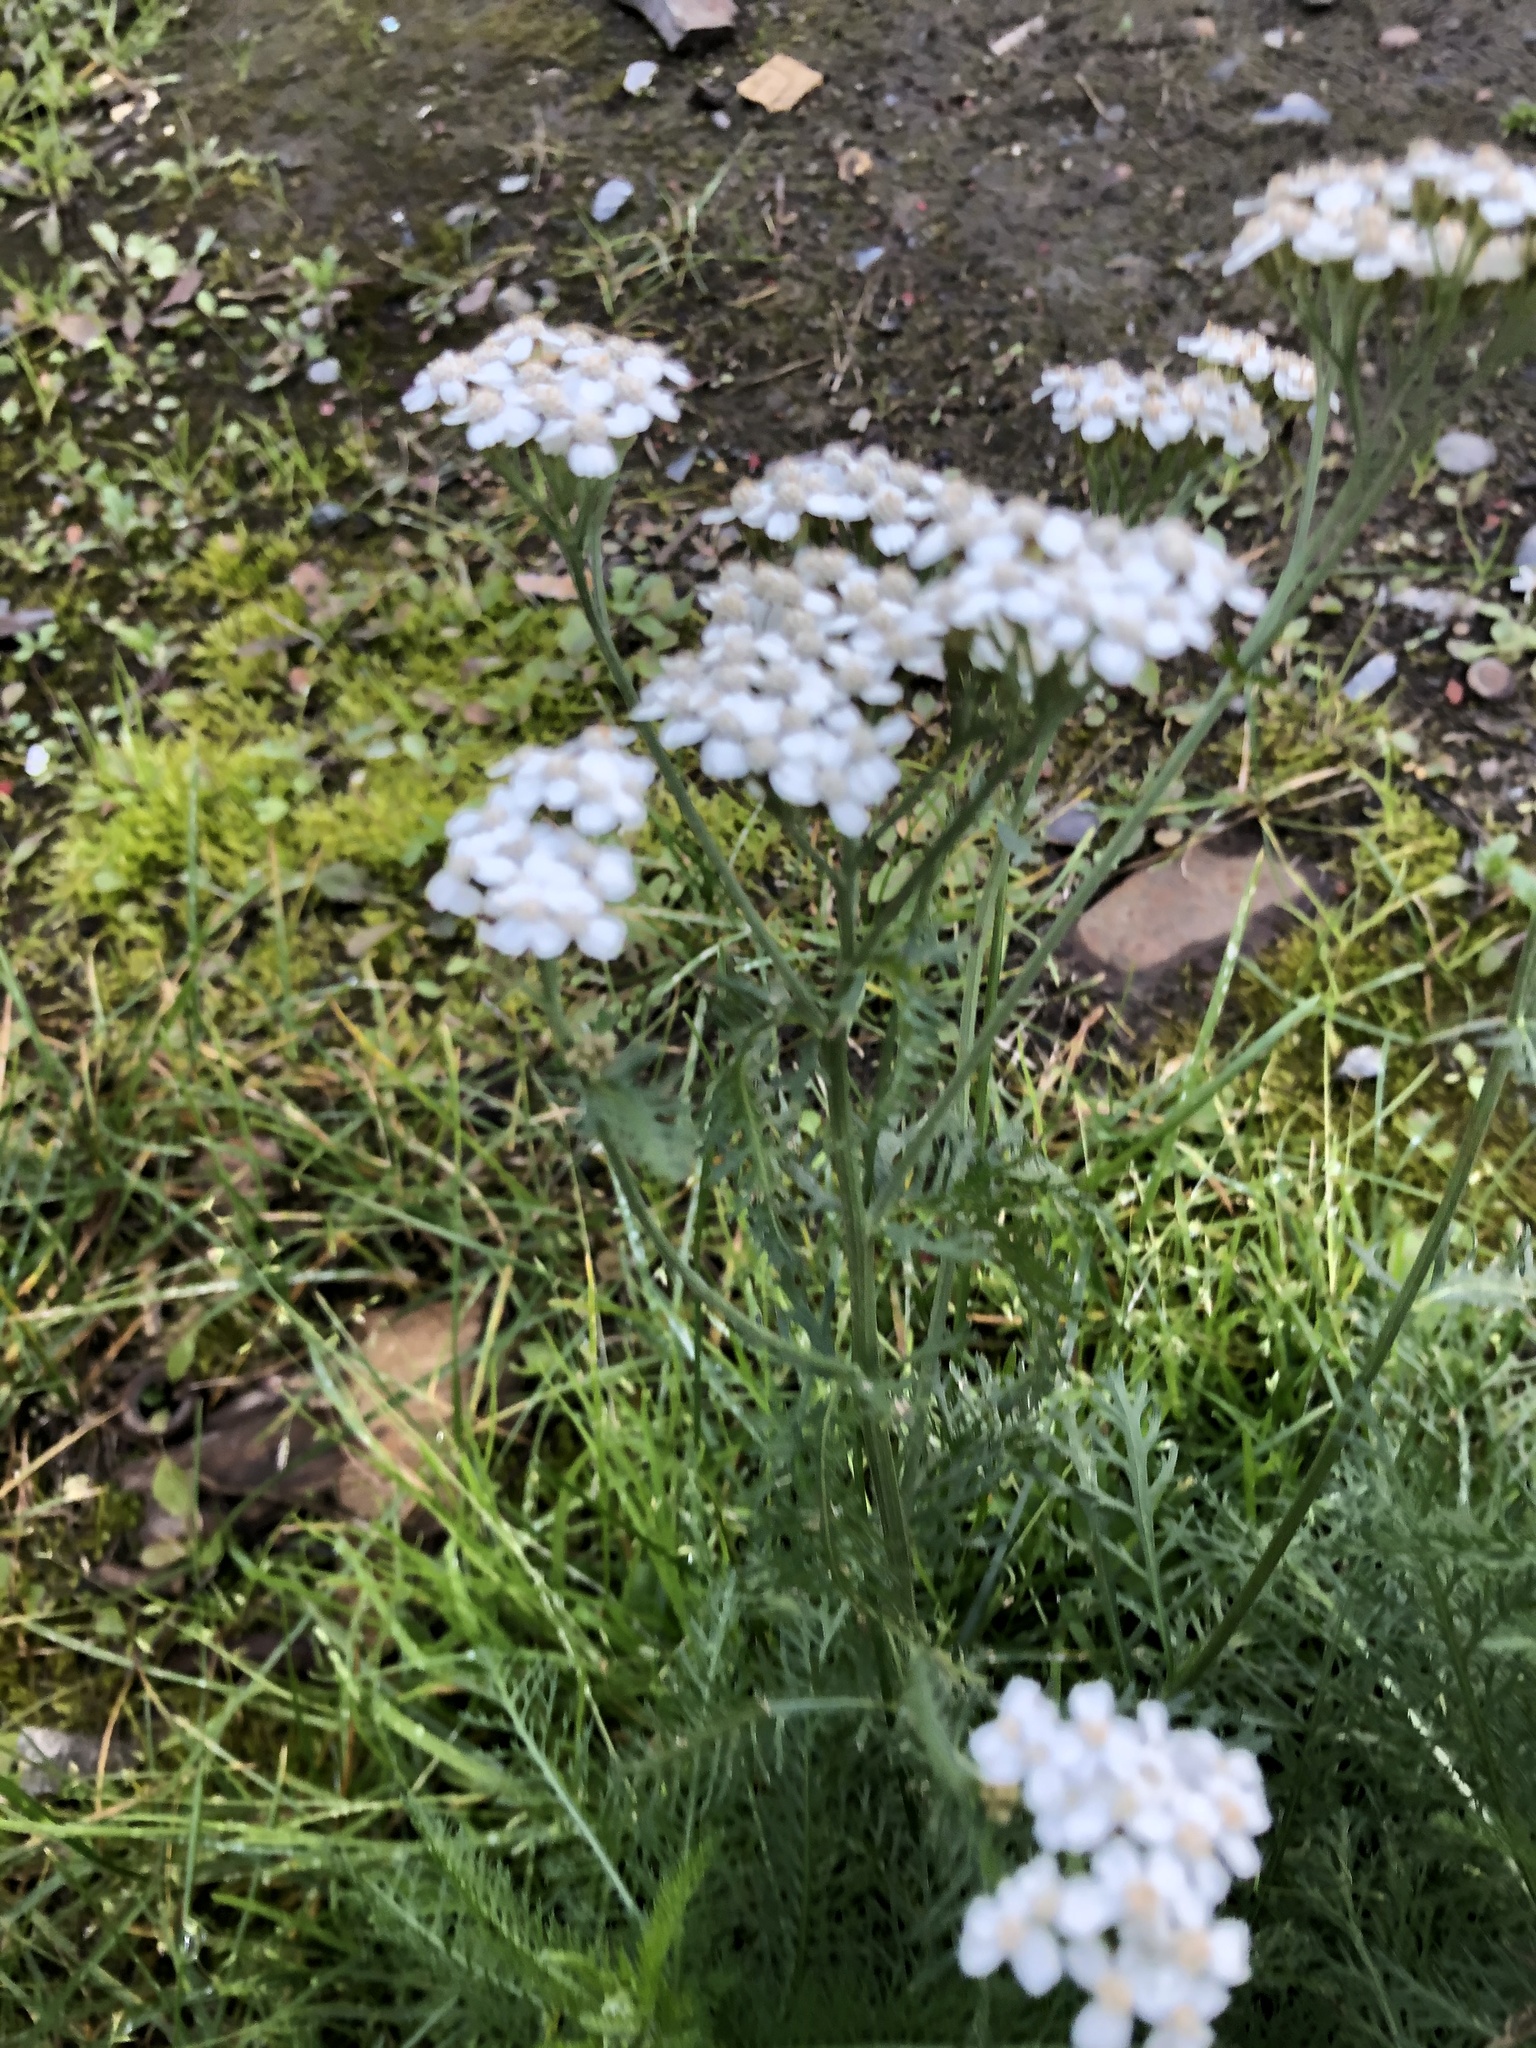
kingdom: Plantae
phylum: Tracheophyta
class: Magnoliopsida
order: Asterales
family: Asteraceae
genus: Achillea
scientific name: Achillea millefolium
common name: Yarrow
